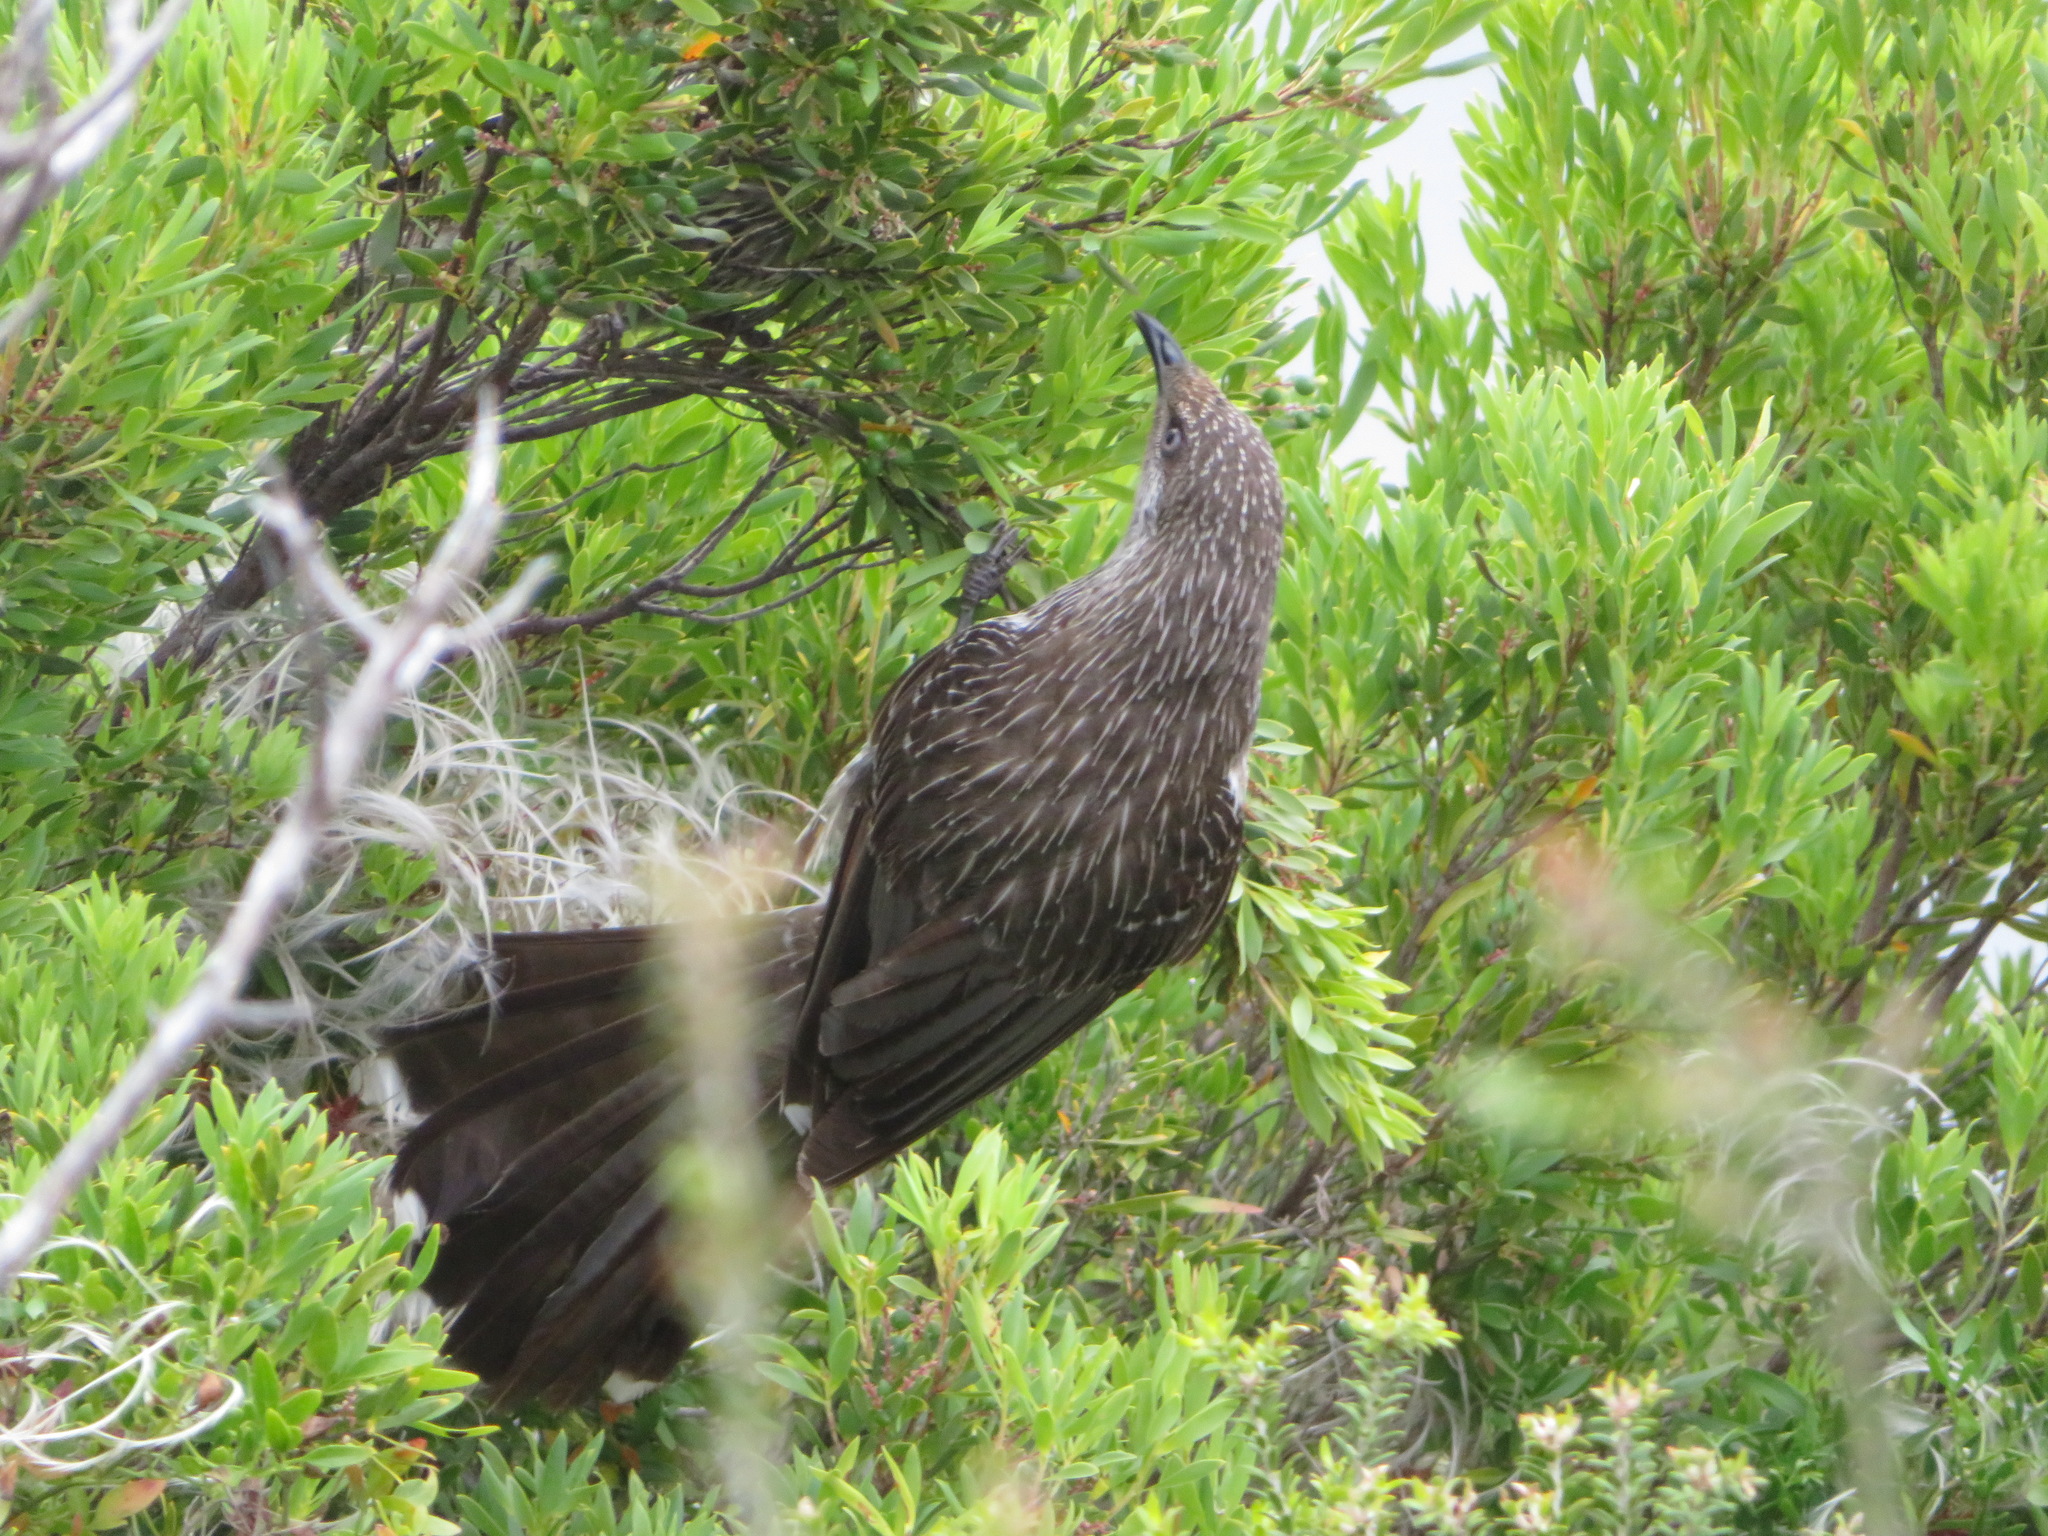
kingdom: Animalia
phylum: Chordata
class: Aves
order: Passeriformes
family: Meliphagidae
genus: Anthochaera
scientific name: Anthochaera chrysoptera
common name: Little wattlebird
